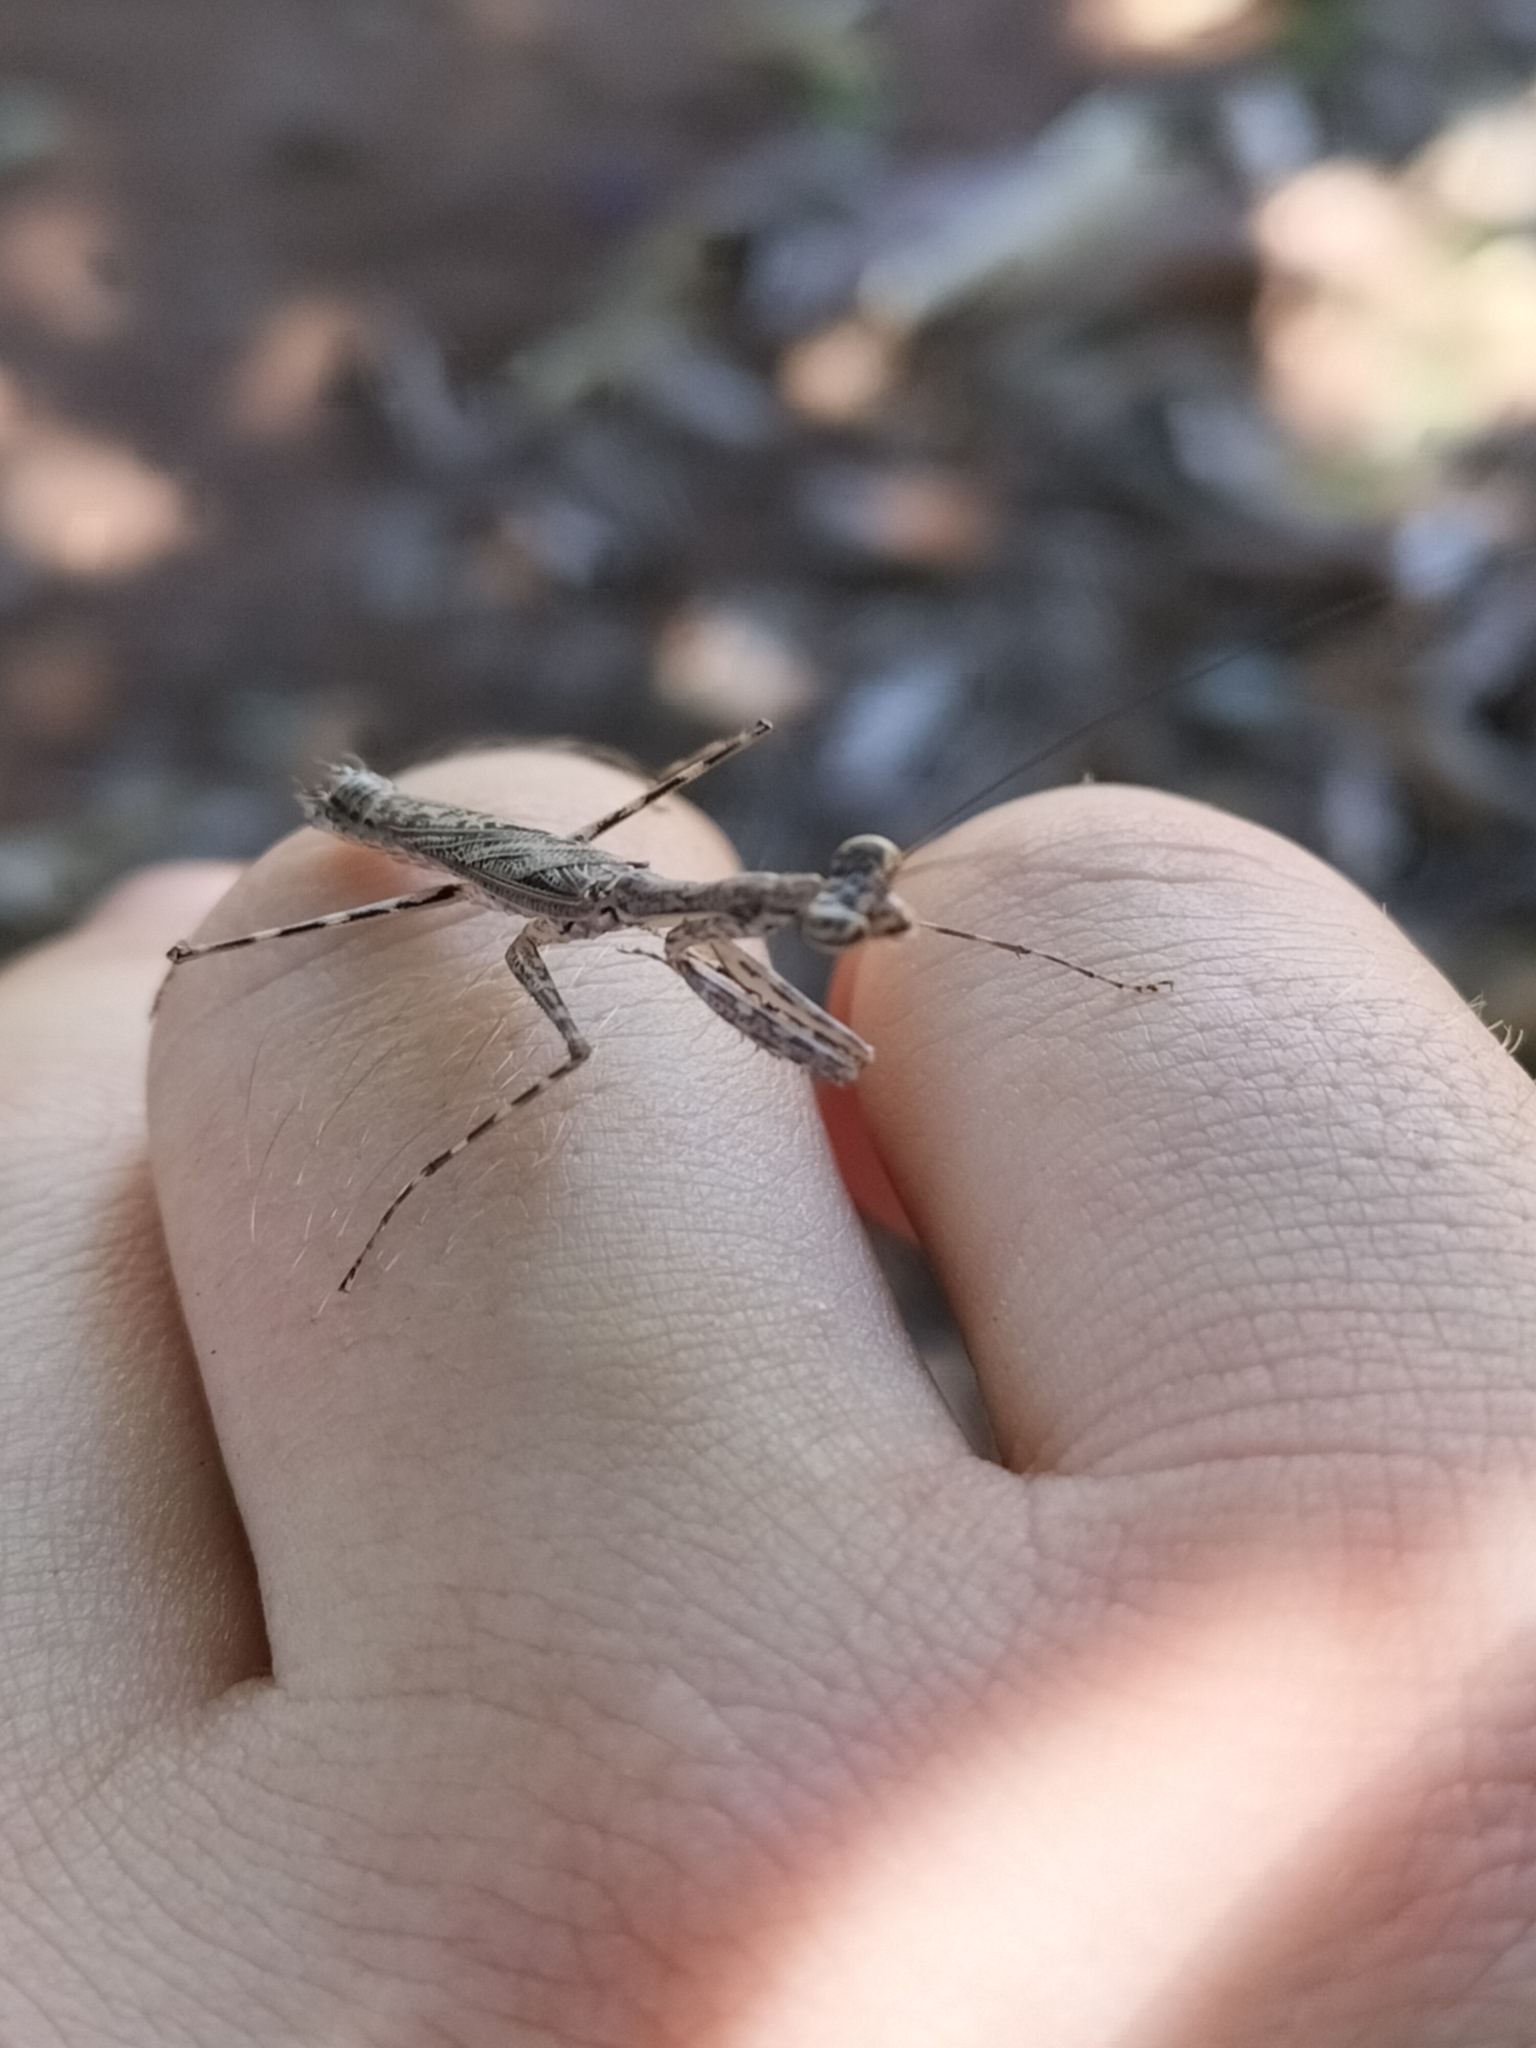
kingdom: Animalia
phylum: Arthropoda
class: Insecta
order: Mantodea
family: Nanomantidae
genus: Ciulfina
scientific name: Ciulfina biseriata
